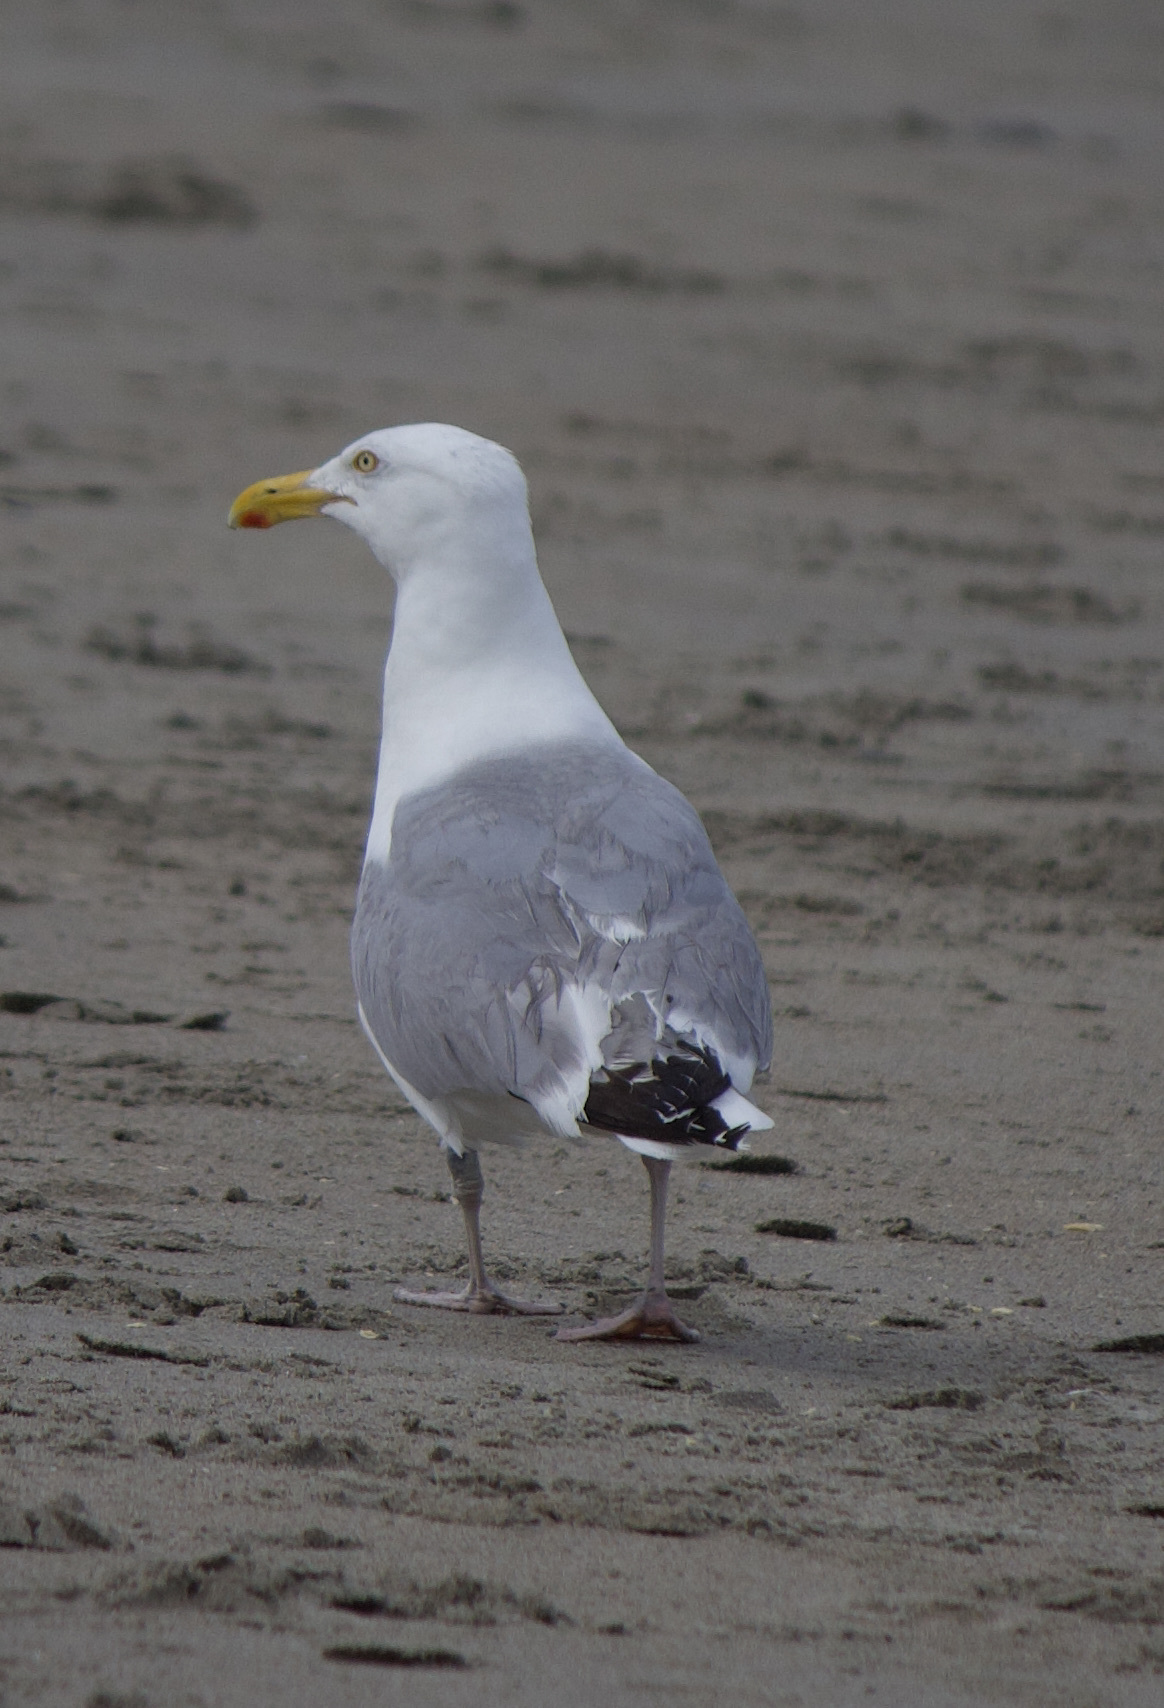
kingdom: Animalia
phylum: Chordata
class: Aves
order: Charadriiformes
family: Laridae
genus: Larus
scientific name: Larus argentatus
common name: Herring gull
